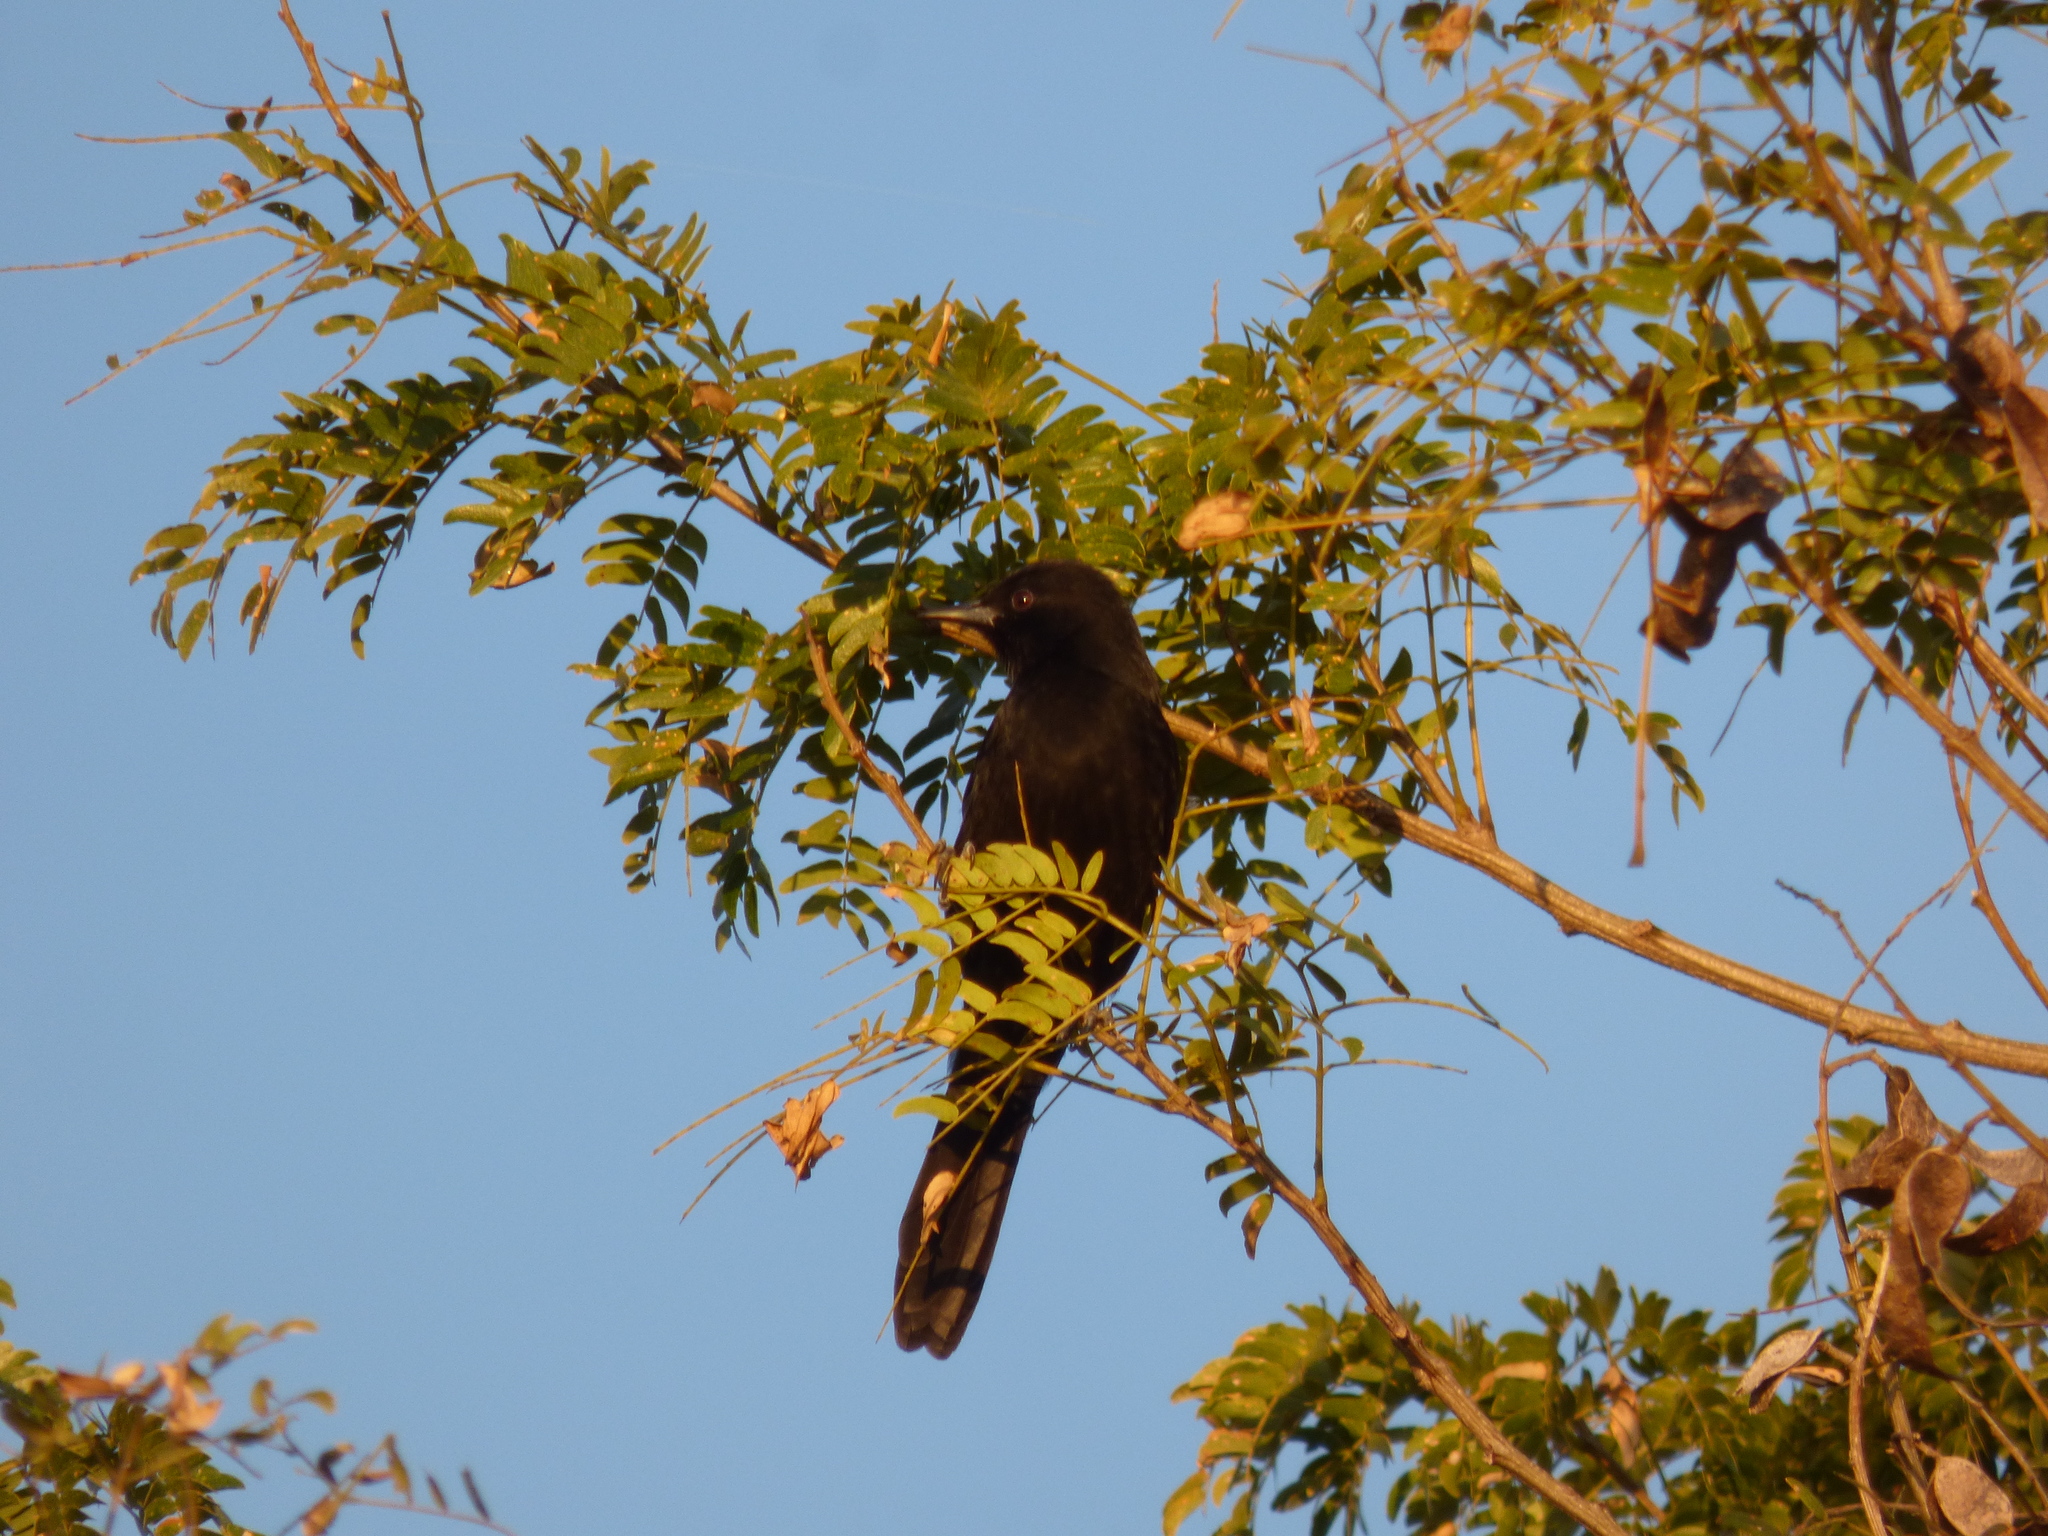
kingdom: Animalia
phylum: Chordata
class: Aves
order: Passeriformes
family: Icteridae
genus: Icterus
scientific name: Icterus cayanensis
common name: Epaulet oriole
